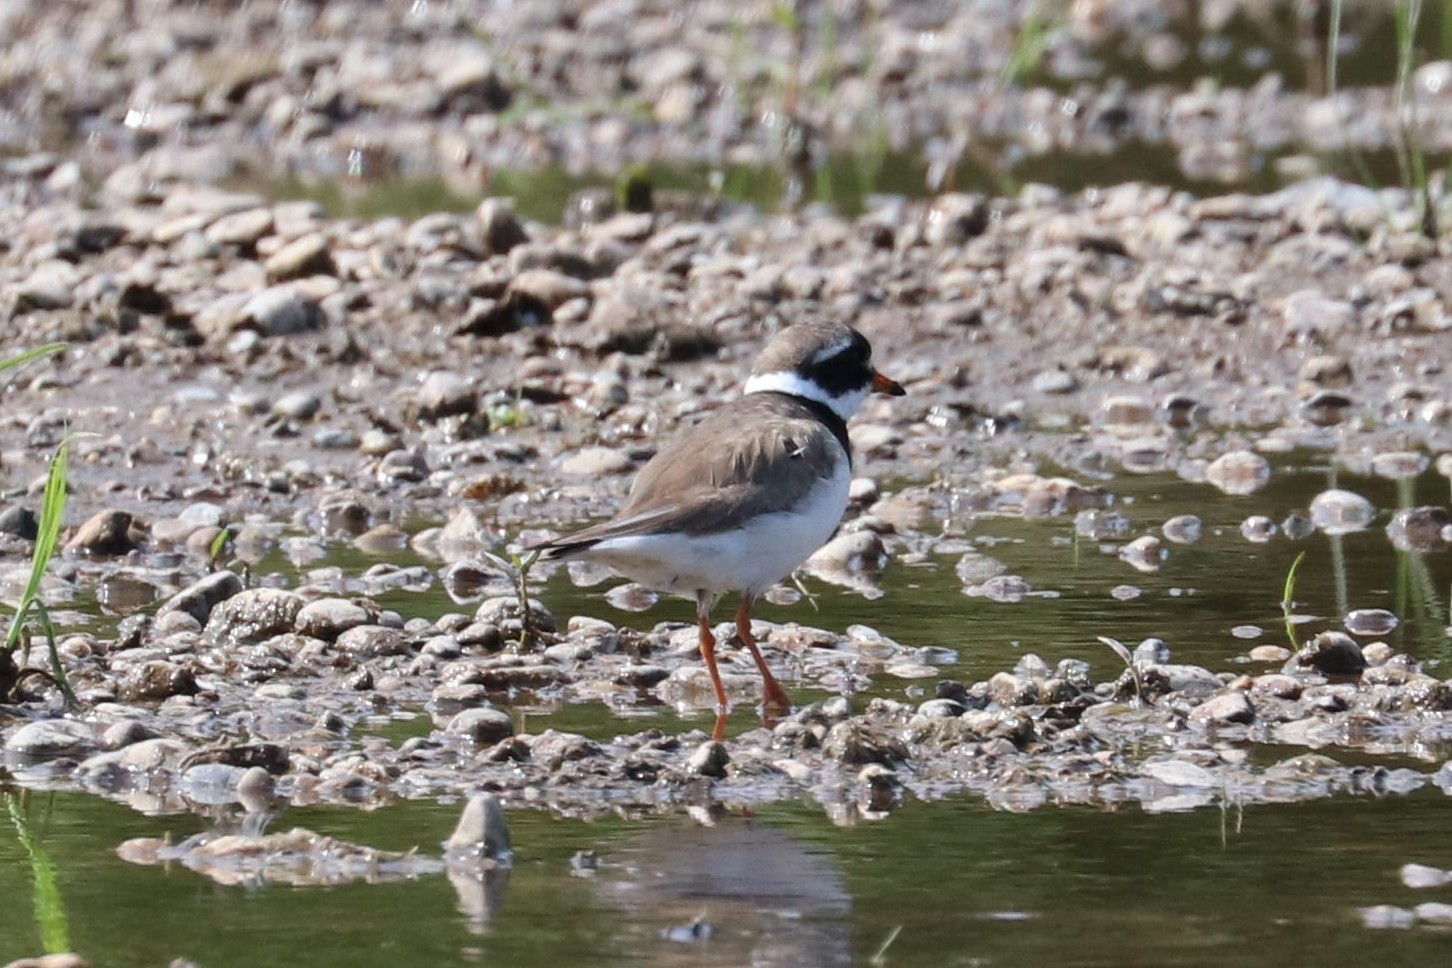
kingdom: Animalia
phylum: Chordata
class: Aves
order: Charadriiformes
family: Charadriidae
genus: Charadrius
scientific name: Charadrius hiaticula
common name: Common ringed plover
